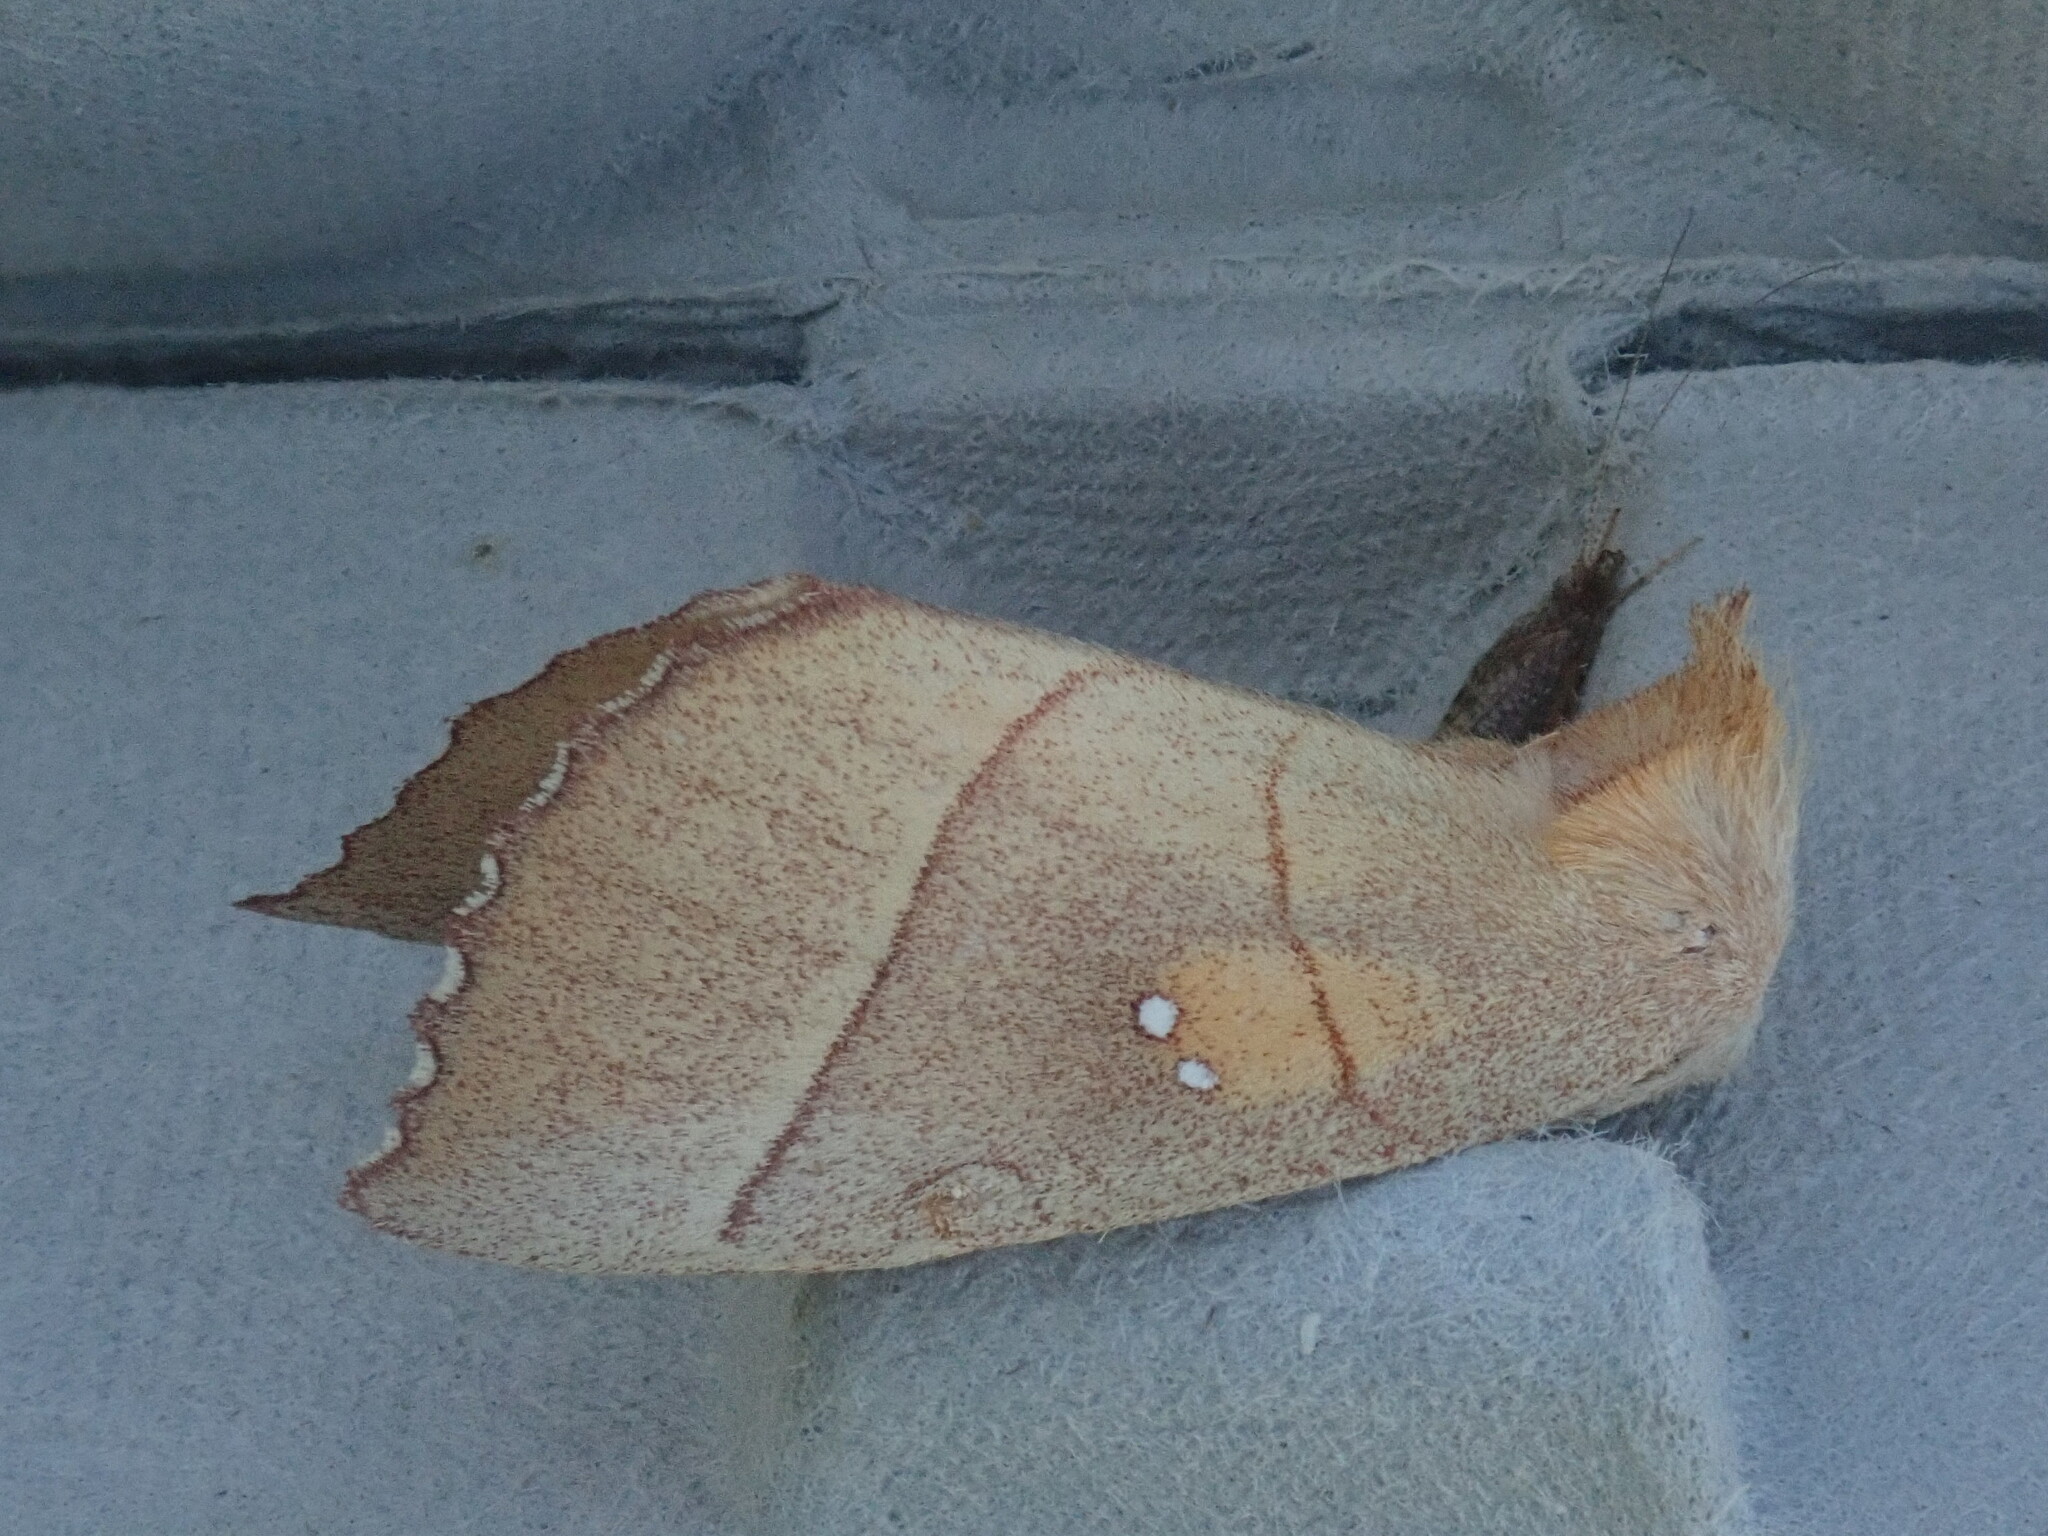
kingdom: Animalia
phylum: Arthropoda
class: Insecta
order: Lepidoptera
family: Notodontidae
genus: Nadata
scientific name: Nadata gibbosa
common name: White-dotted prominent
